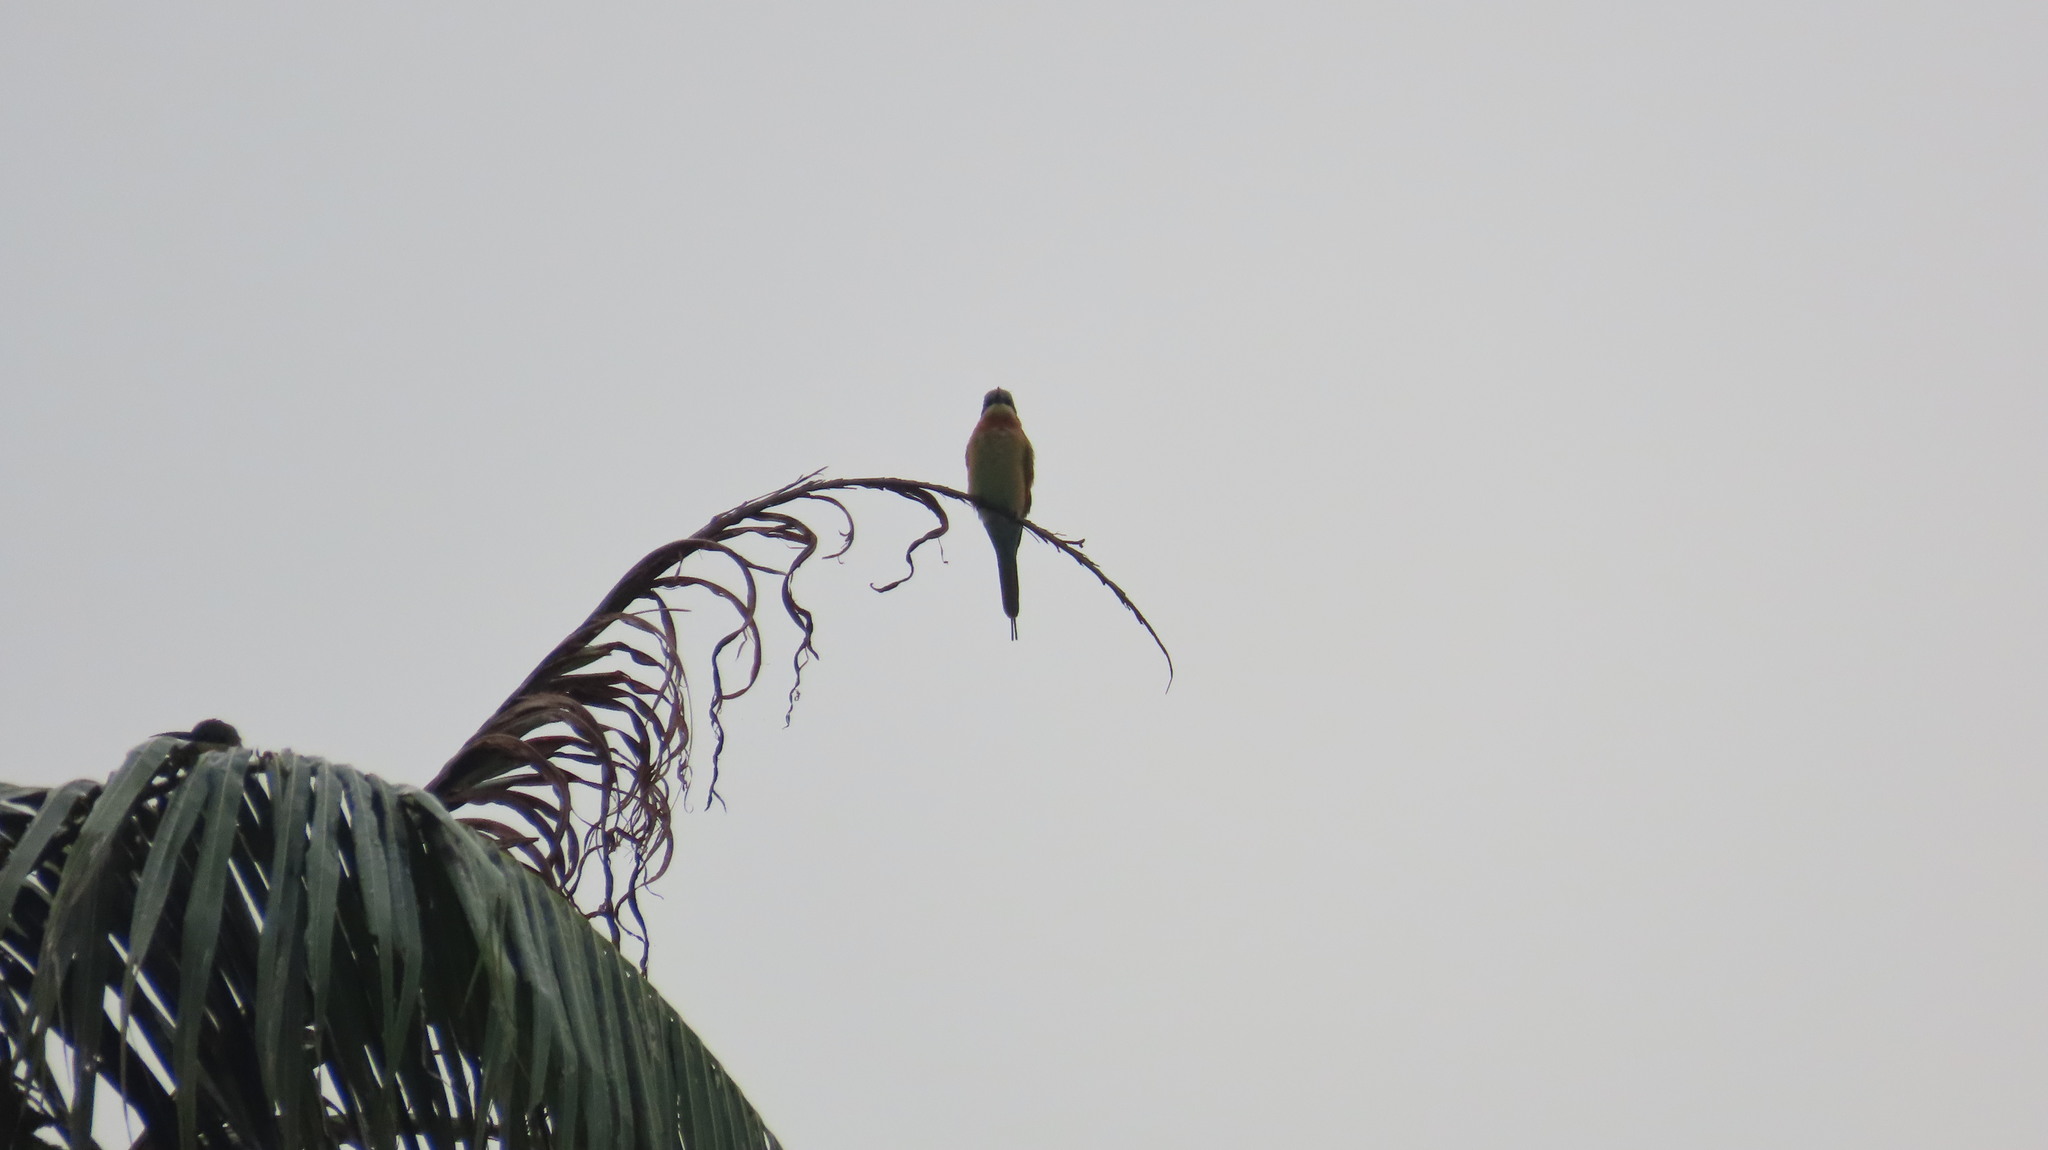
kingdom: Animalia
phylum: Chordata
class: Aves
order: Coraciiformes
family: Meropidae
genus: Merops
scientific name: Merops philippinus
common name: Blue-tailed bee-eater
